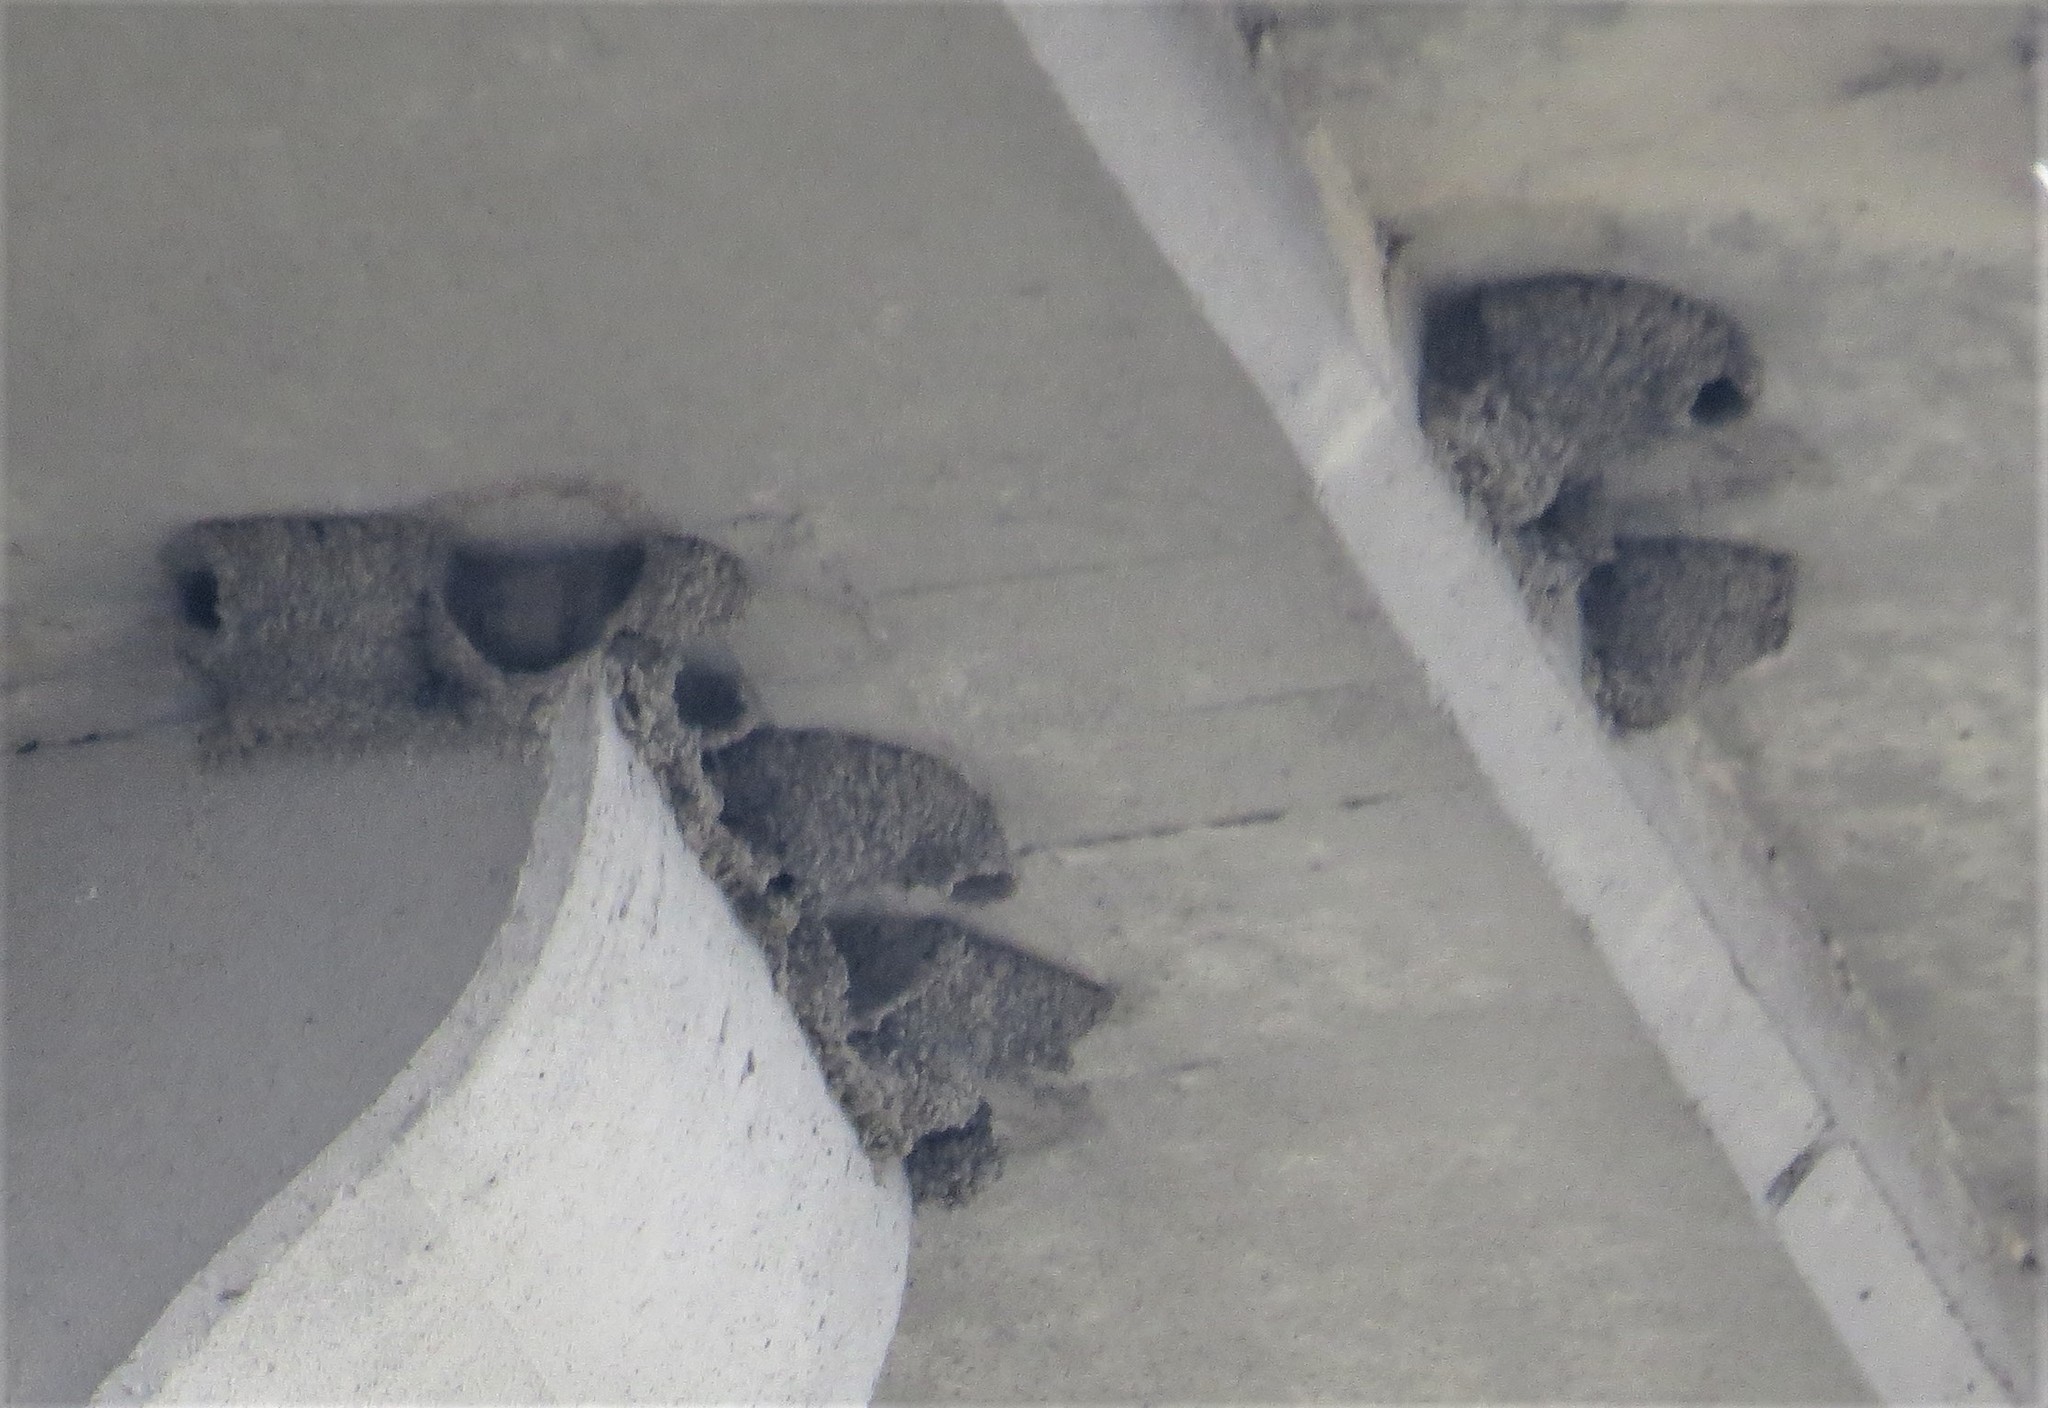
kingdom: Animalia
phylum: Chordata
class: Aves
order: Passeriformes
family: Hirundinidae
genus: Petrochelidon
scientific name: Petrochelidon pyrrhonota
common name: American cliff swallow
